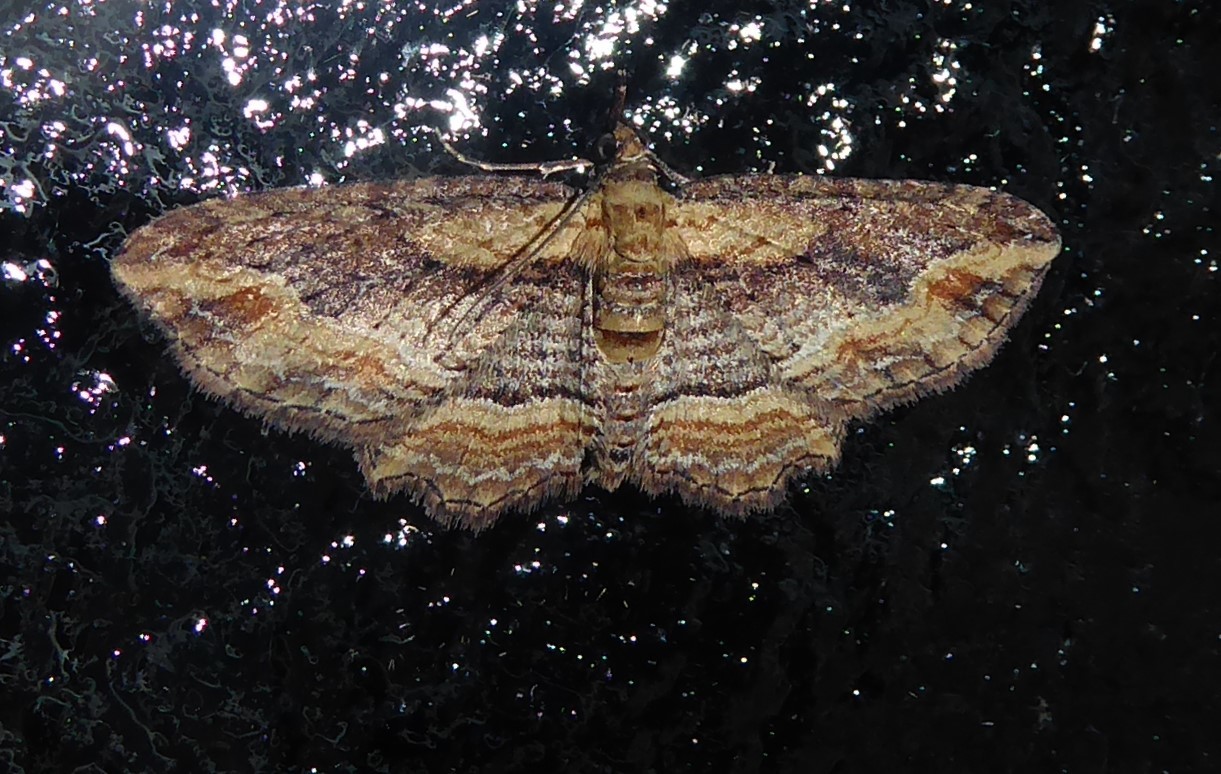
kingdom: Animalia
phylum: Arthropoda
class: Insecta
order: Lepidoptera
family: Geometridae
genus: Chloroclystis
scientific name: Chloroclystis filata
